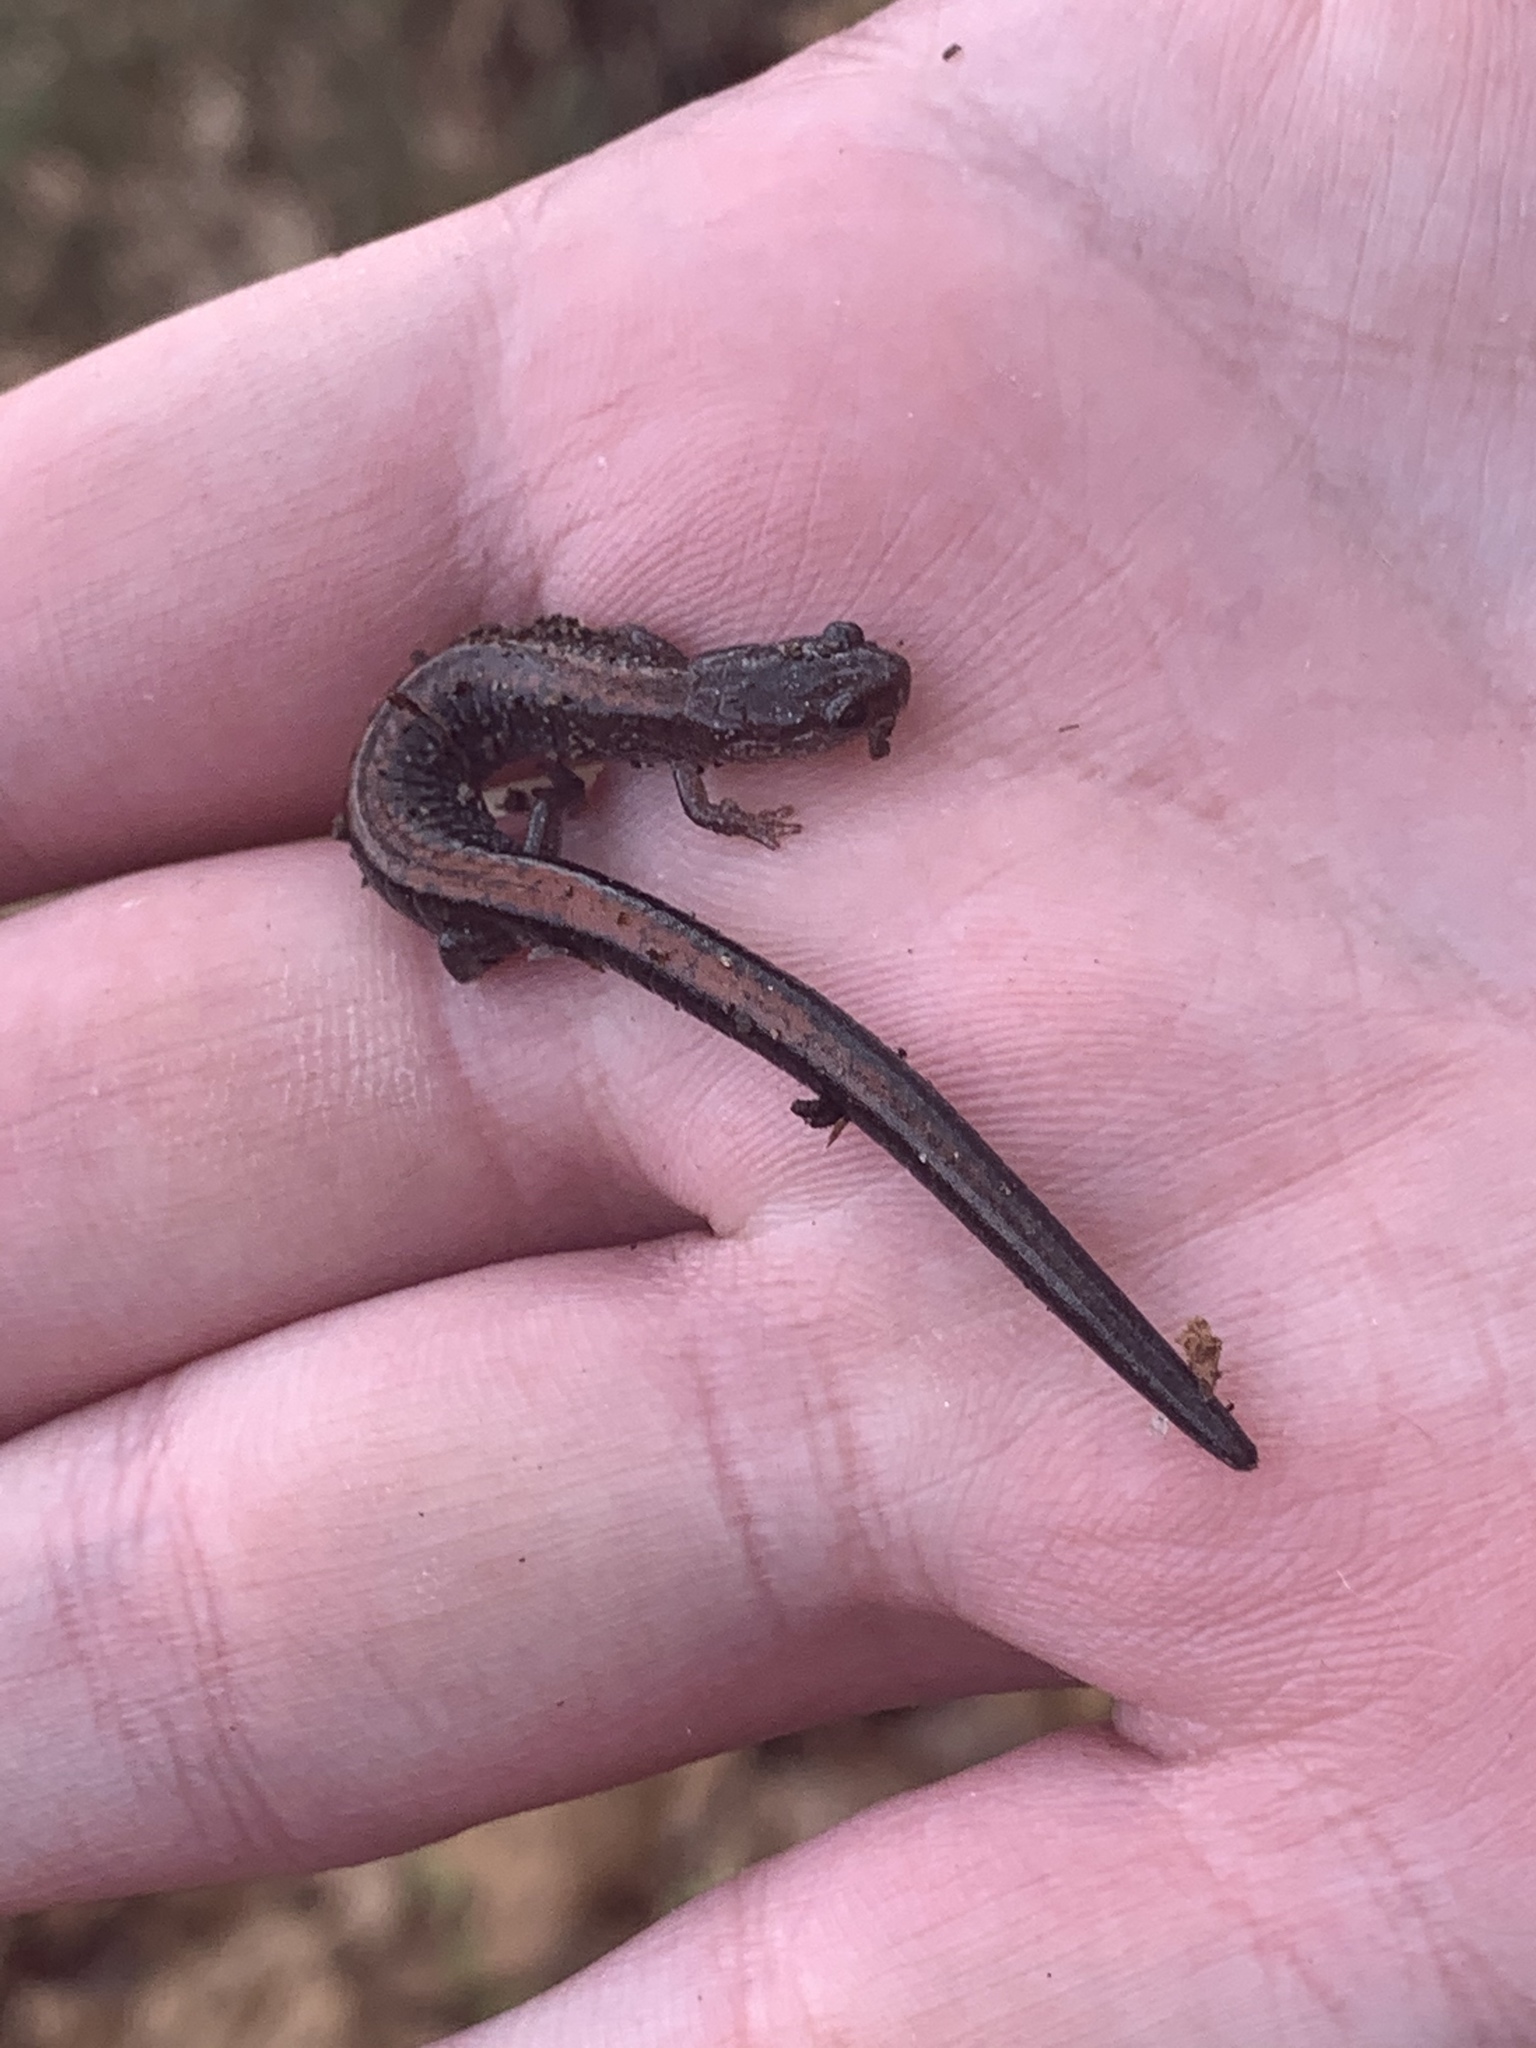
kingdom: Animalia
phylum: Chordata
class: Amphibia
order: Caudata
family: Plethodontidae
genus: Plethodon
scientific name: Plethodon cinereus
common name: Redback salamander
